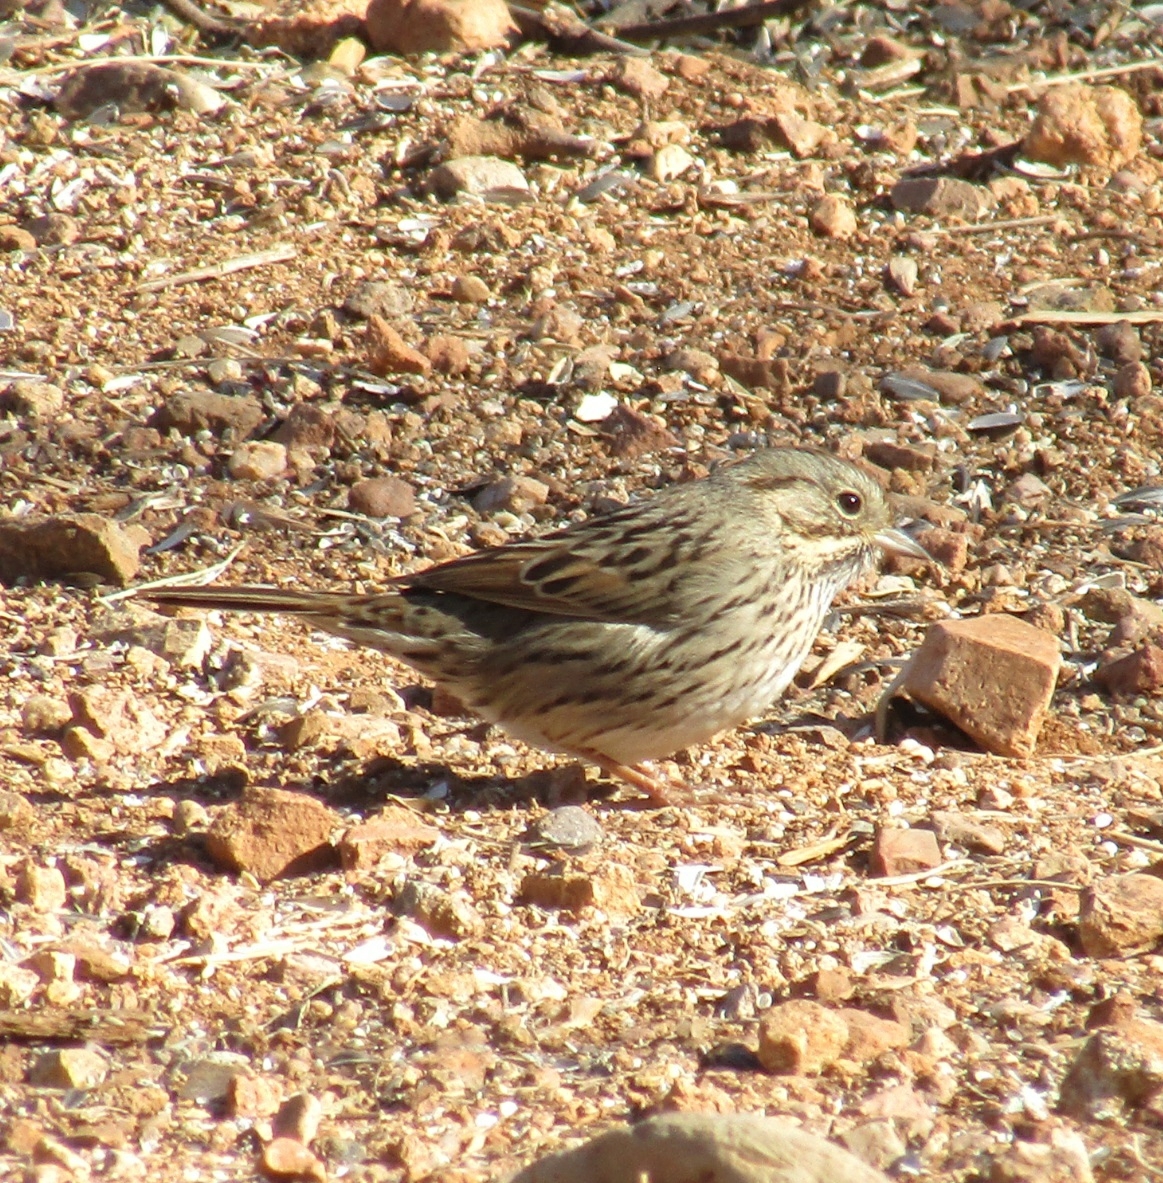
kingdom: Animalia
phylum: Chordata
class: Aves
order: Passeriformes
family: Passerellidae
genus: Melospiza
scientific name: Melospiza lincolnii
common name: Lincoln's sparrow
